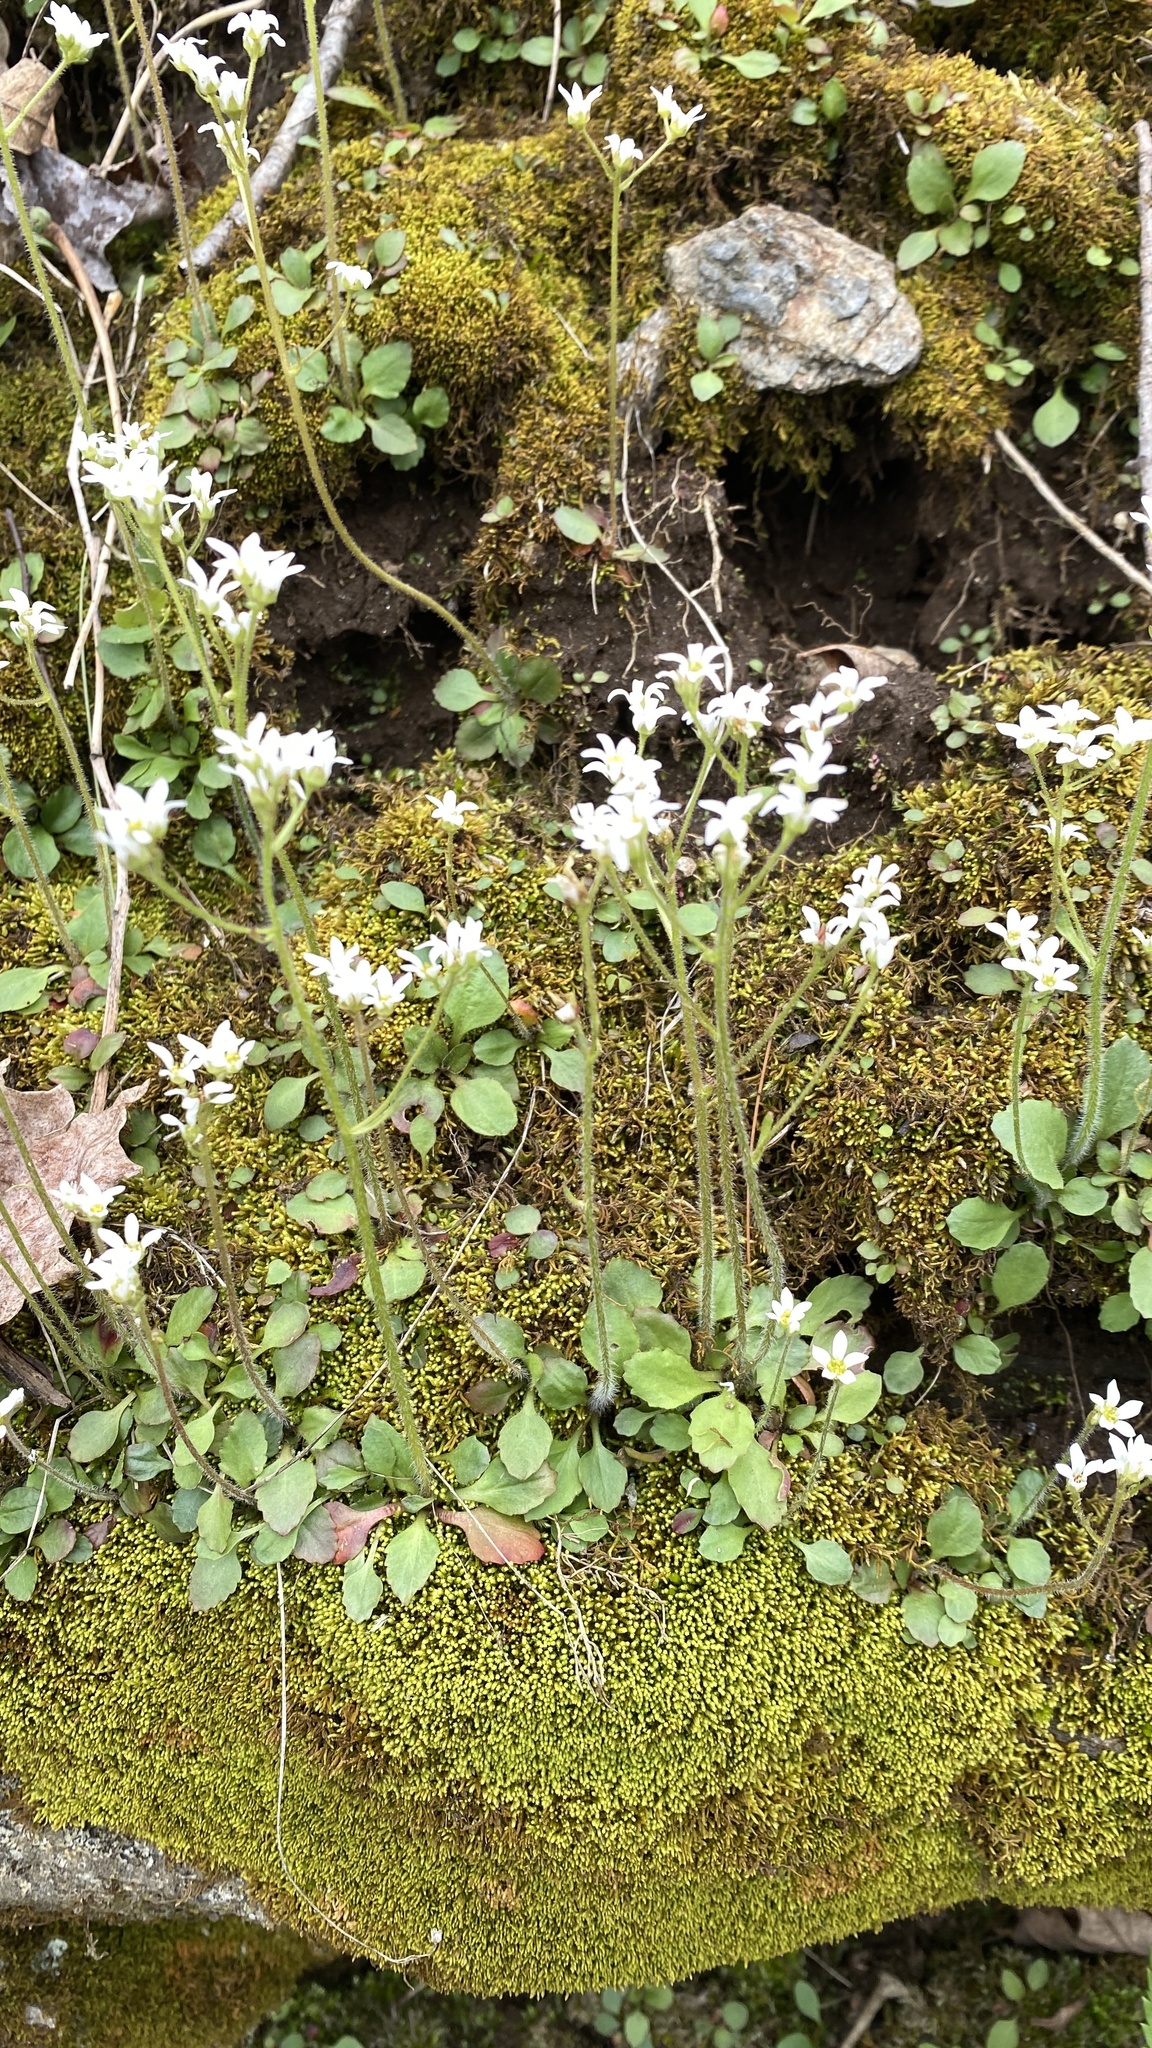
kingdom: Plantae
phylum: Tracheophyta
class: Magnoliopsida
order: Saxifragales
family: Saxifragaceae
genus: Micranthes
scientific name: Micranthes virginiensis
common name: Early saxifrage
